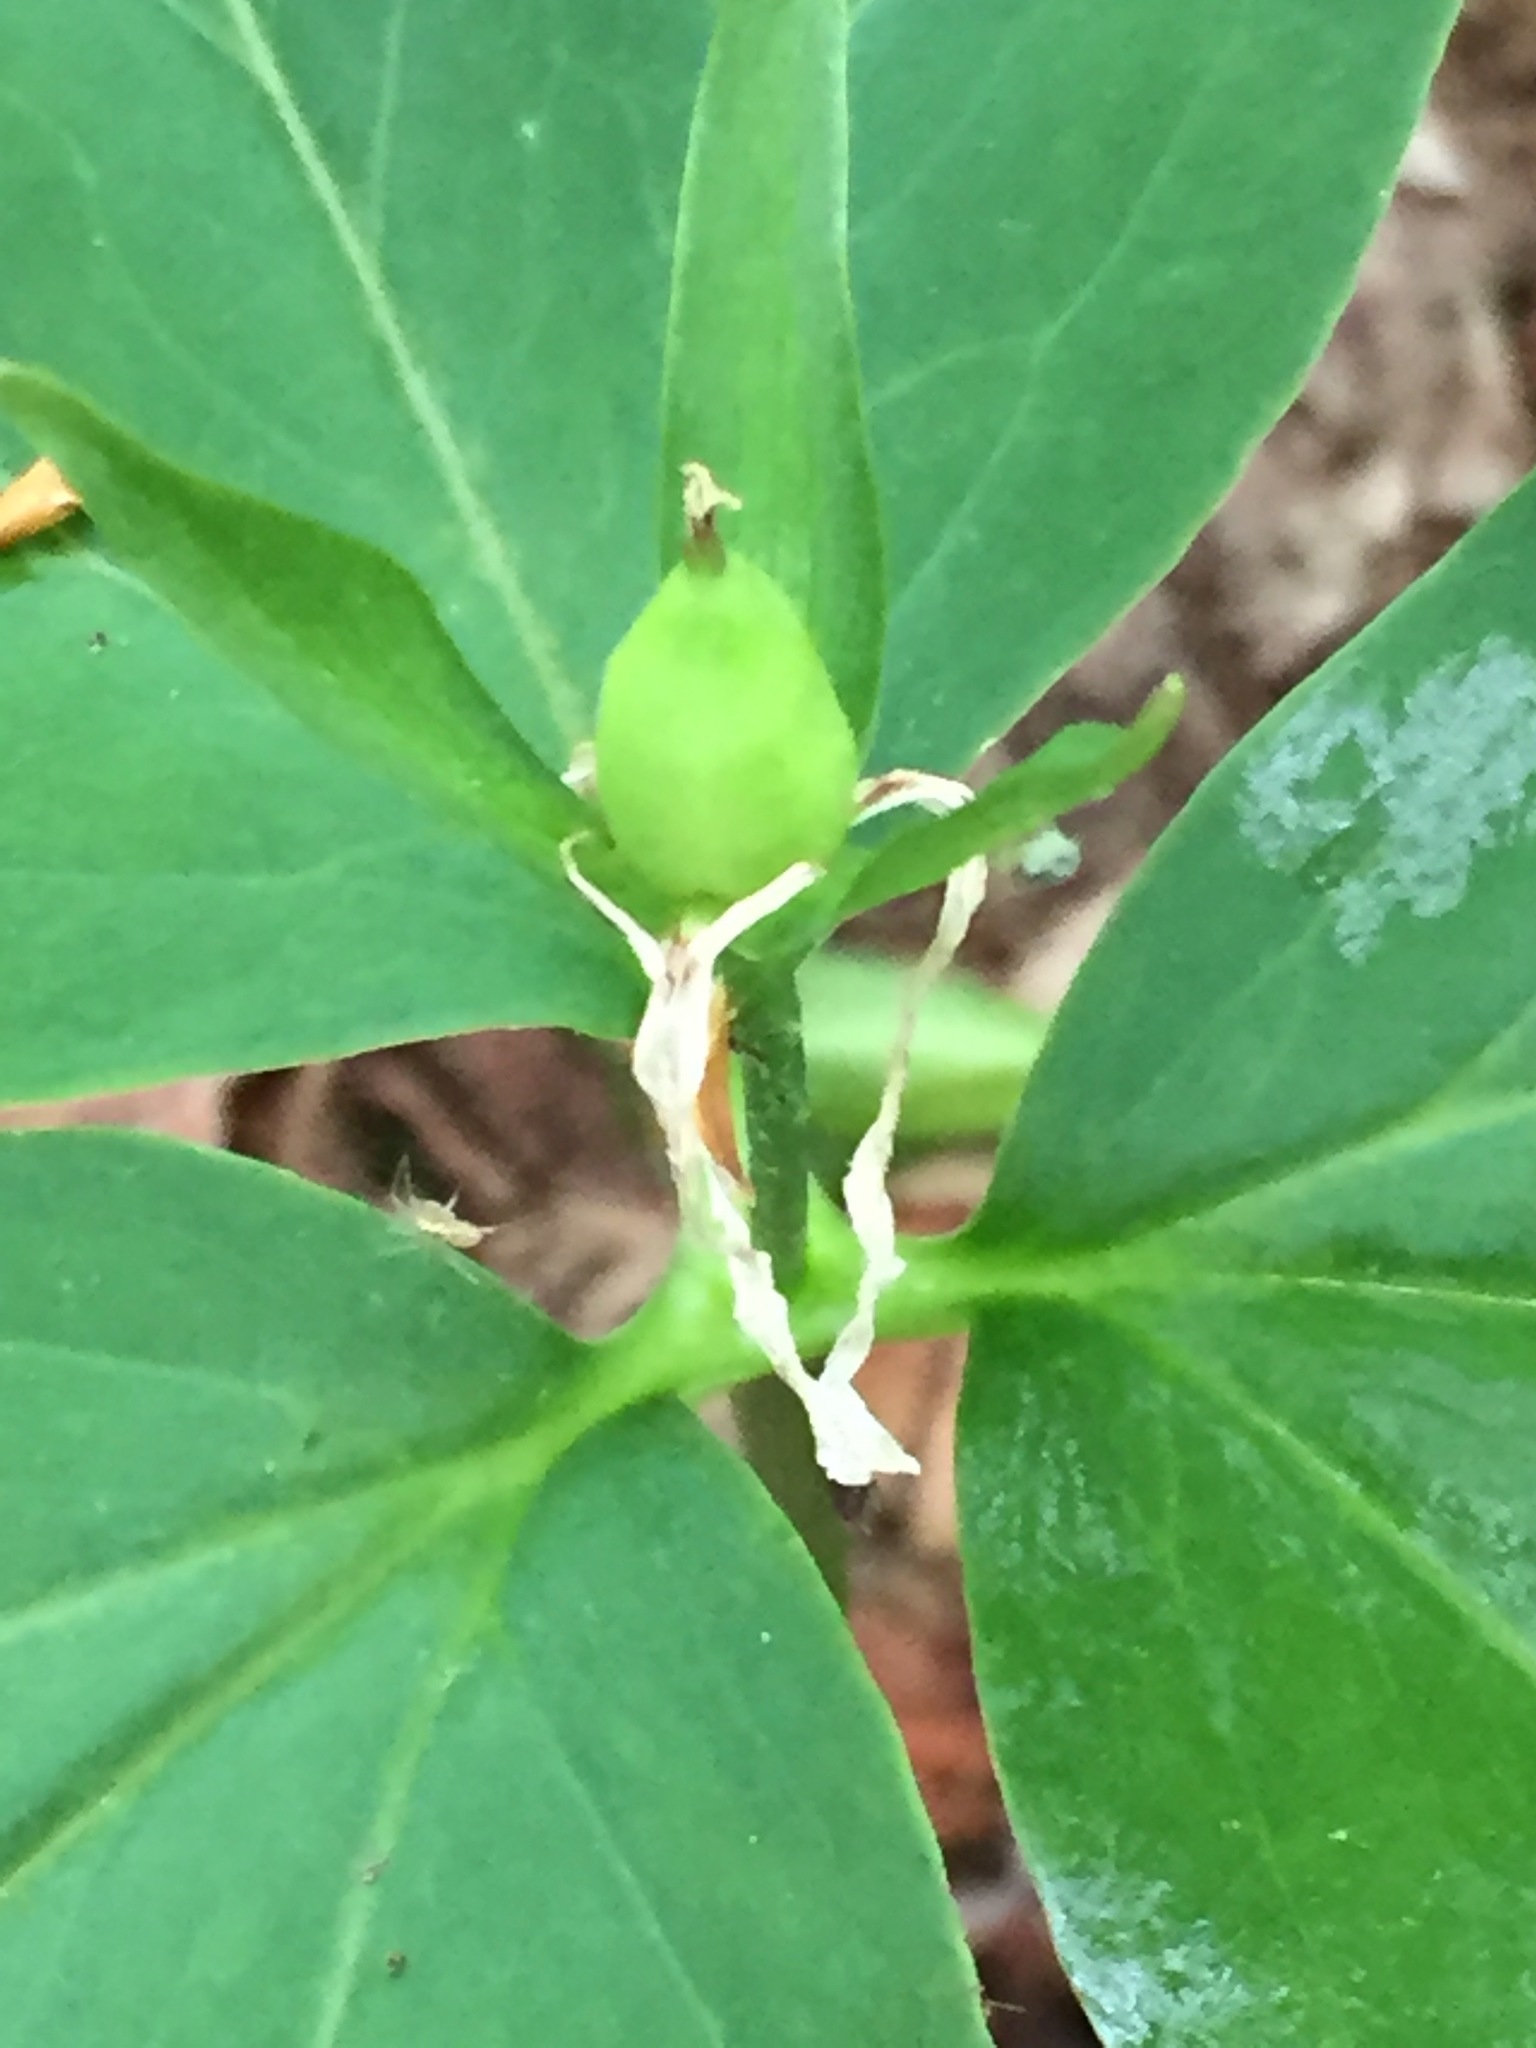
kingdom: Plantae
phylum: Tracheophyta
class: Liliopsida
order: Liliales
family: Melanthiaceae
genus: Trillium
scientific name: Trillium undulatum
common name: Paint trillium
